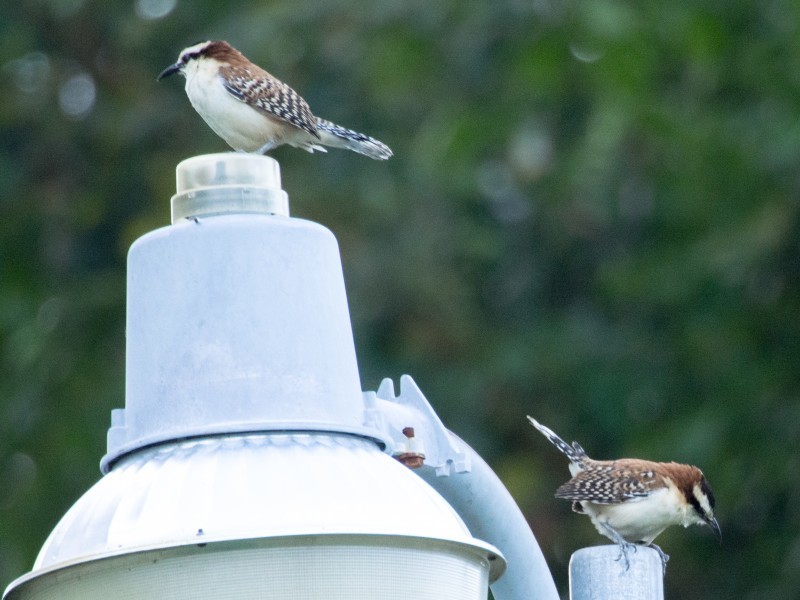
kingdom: Animalia
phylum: Chordata
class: Aves
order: Passeriformes
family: Troglodytidae
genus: Campylorhynchus
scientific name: Campylorhynchus rufinucha
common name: Rufous-naped wren
